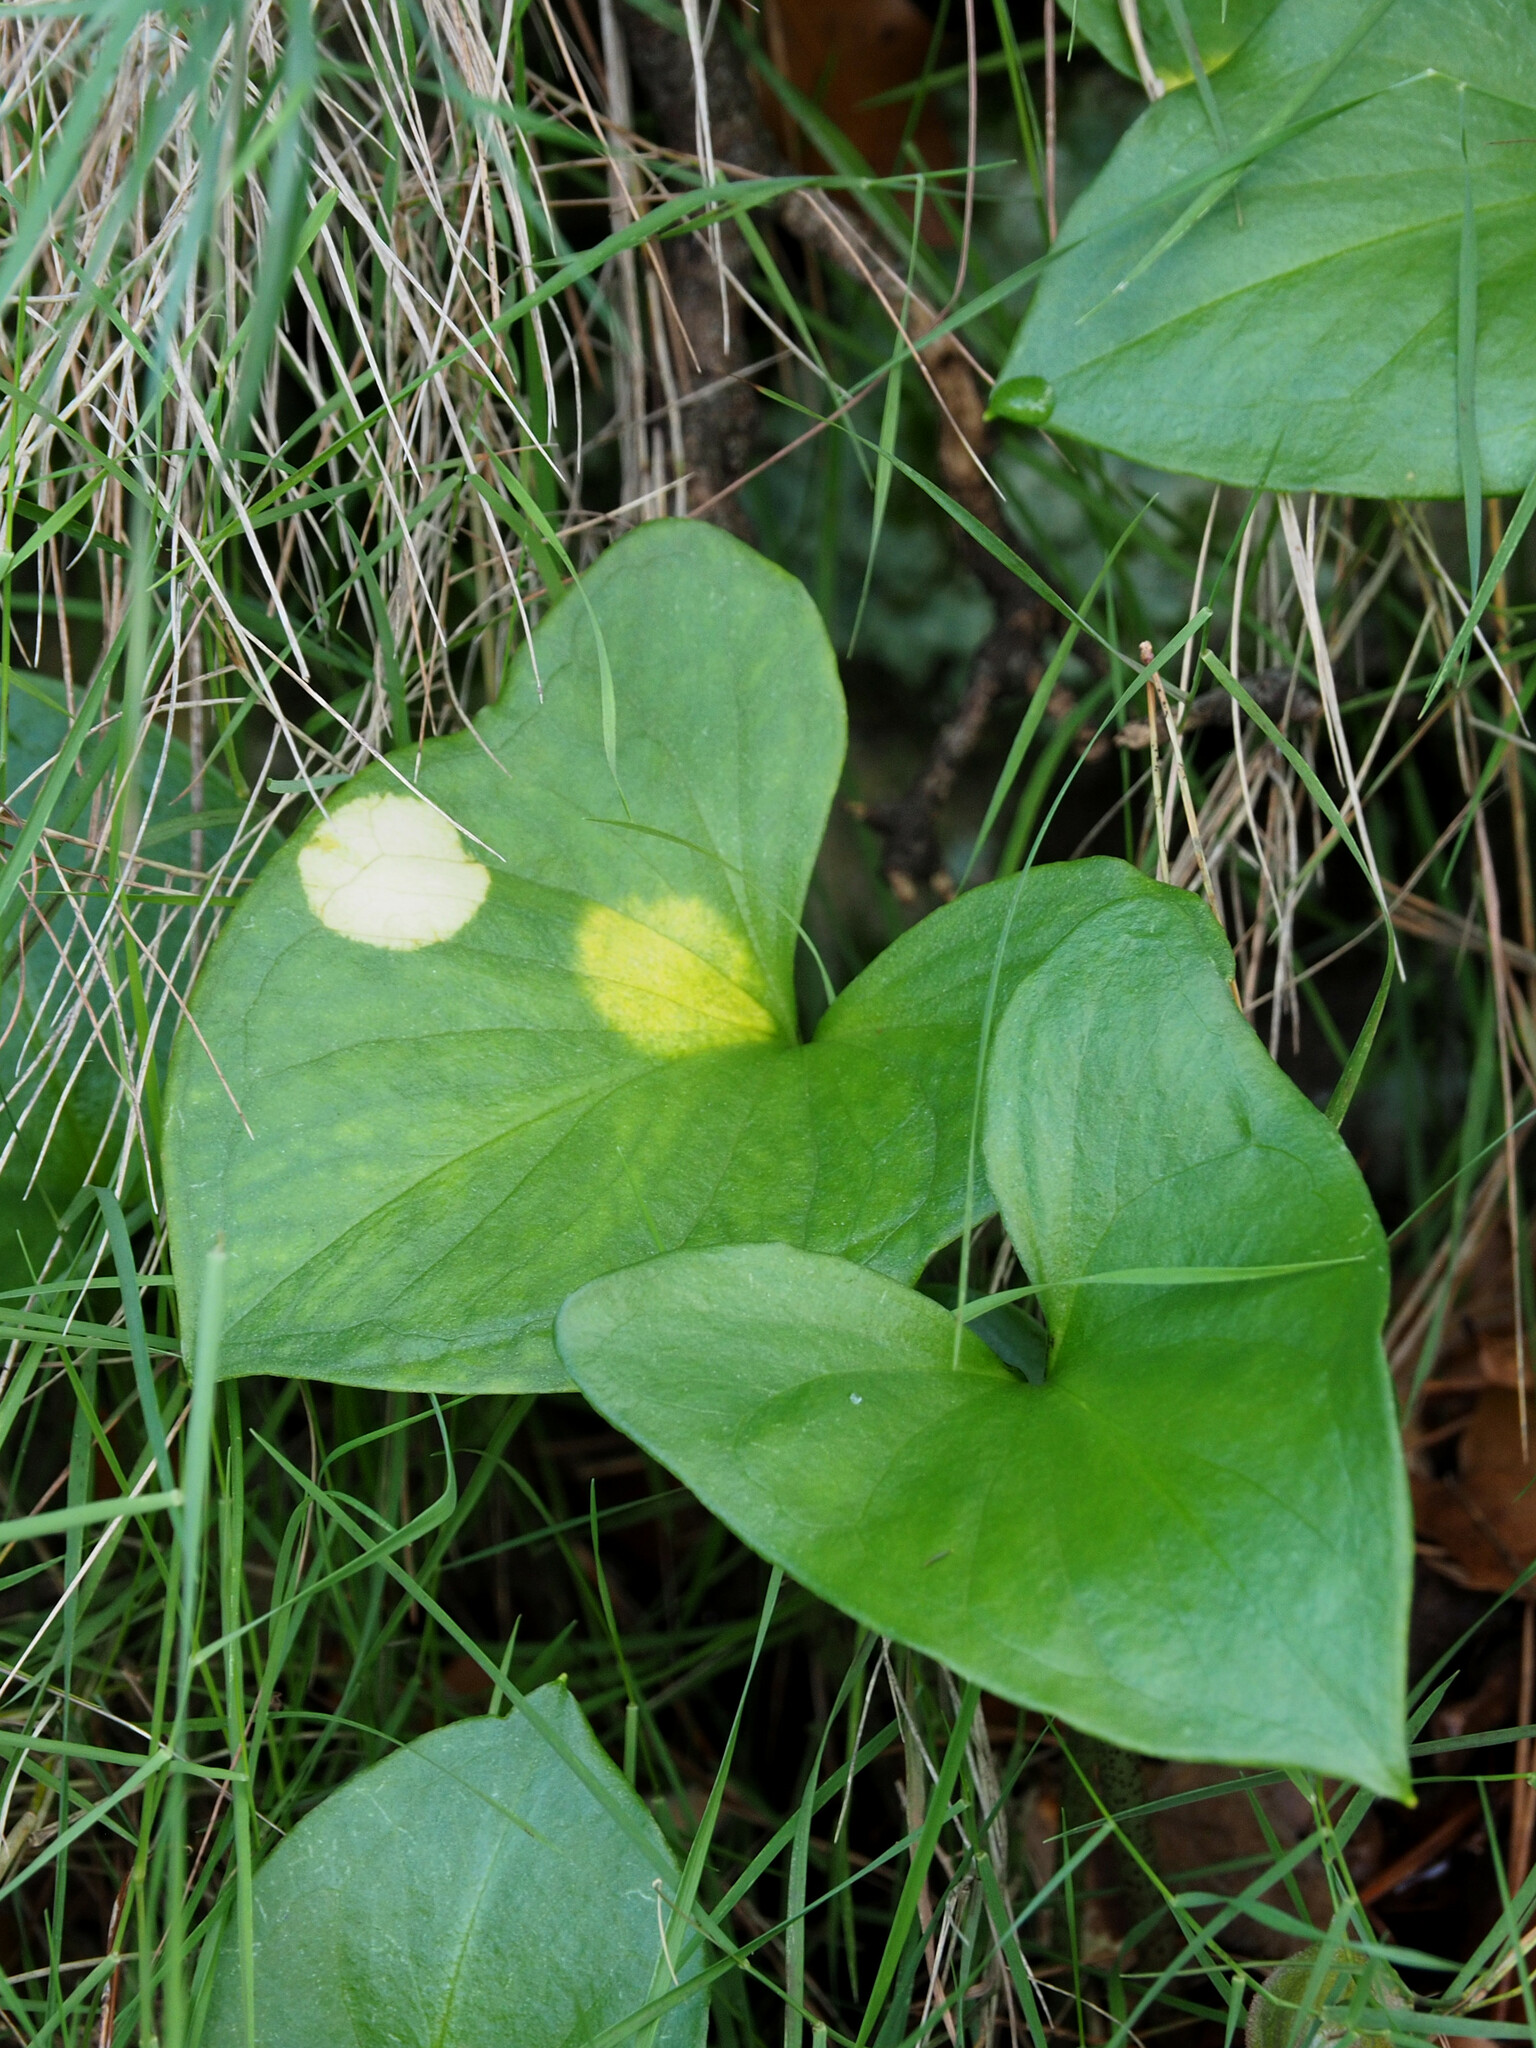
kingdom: Chromista
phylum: Ochrophyta
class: Xanthophyceae
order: Phyllosiphonales
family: Phyllosiphonaceae
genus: Phyllosiphon
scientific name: Phyllosiphon arisari
